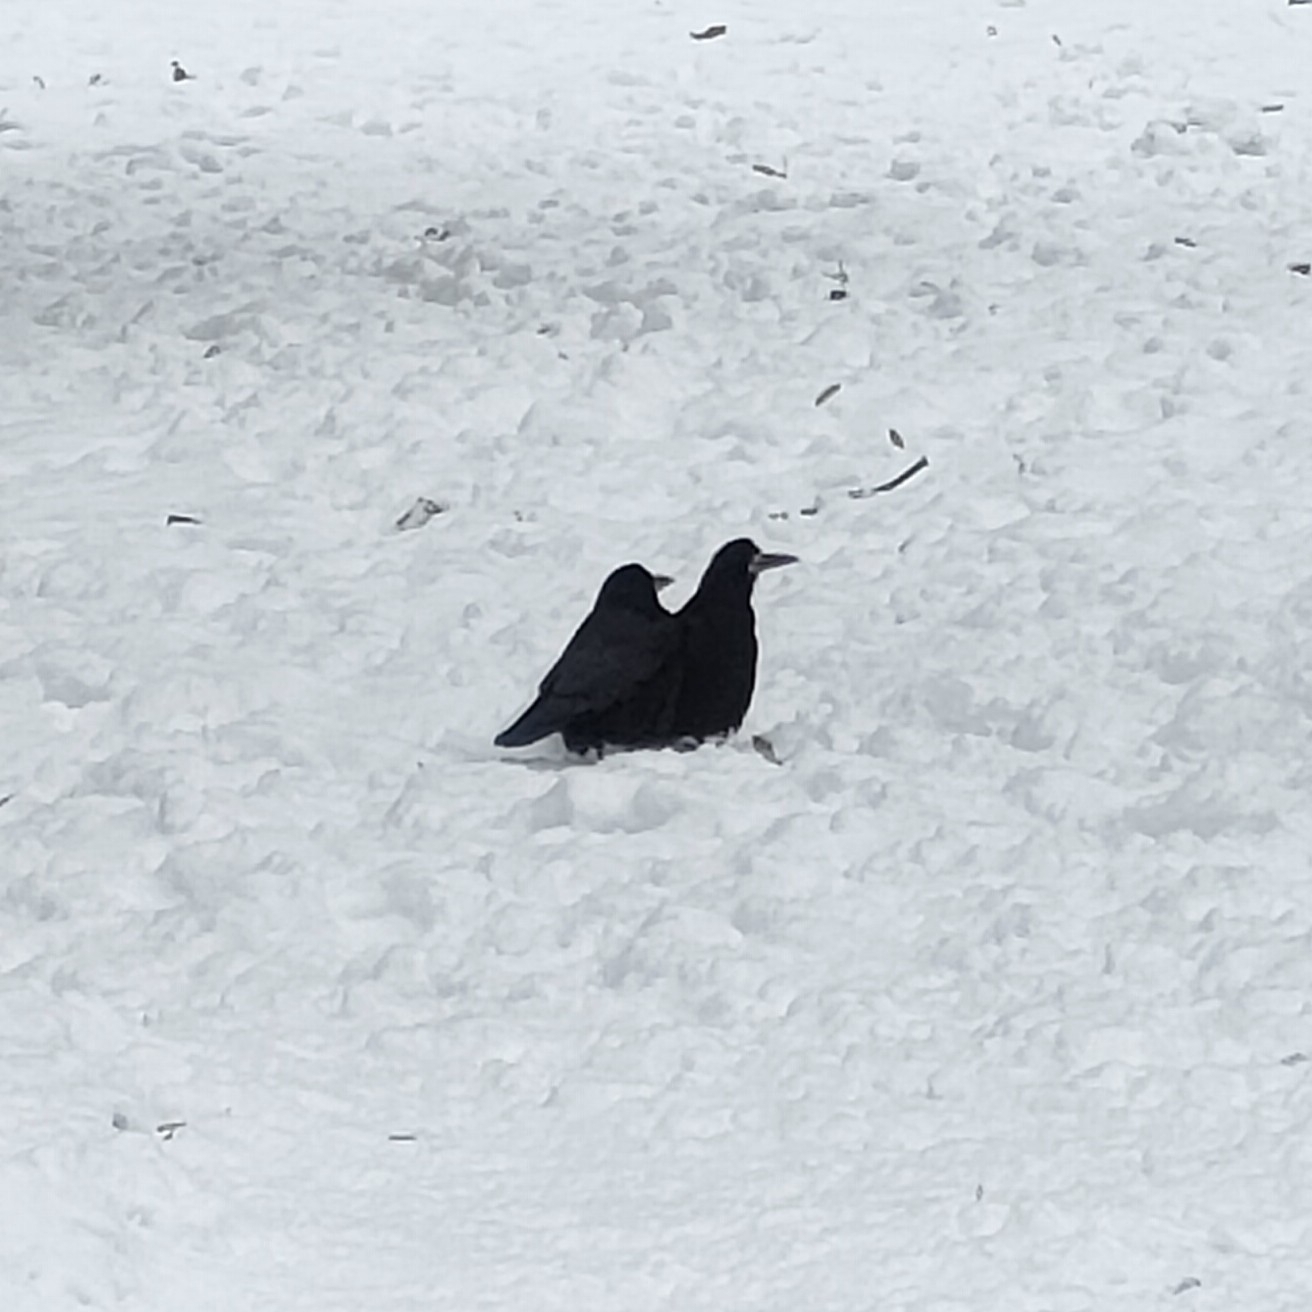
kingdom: Animalia
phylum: Chordata
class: Aves
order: Passeriformes
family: Corvidae
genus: Corvus
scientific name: Corvus frugilegus
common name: Rook
